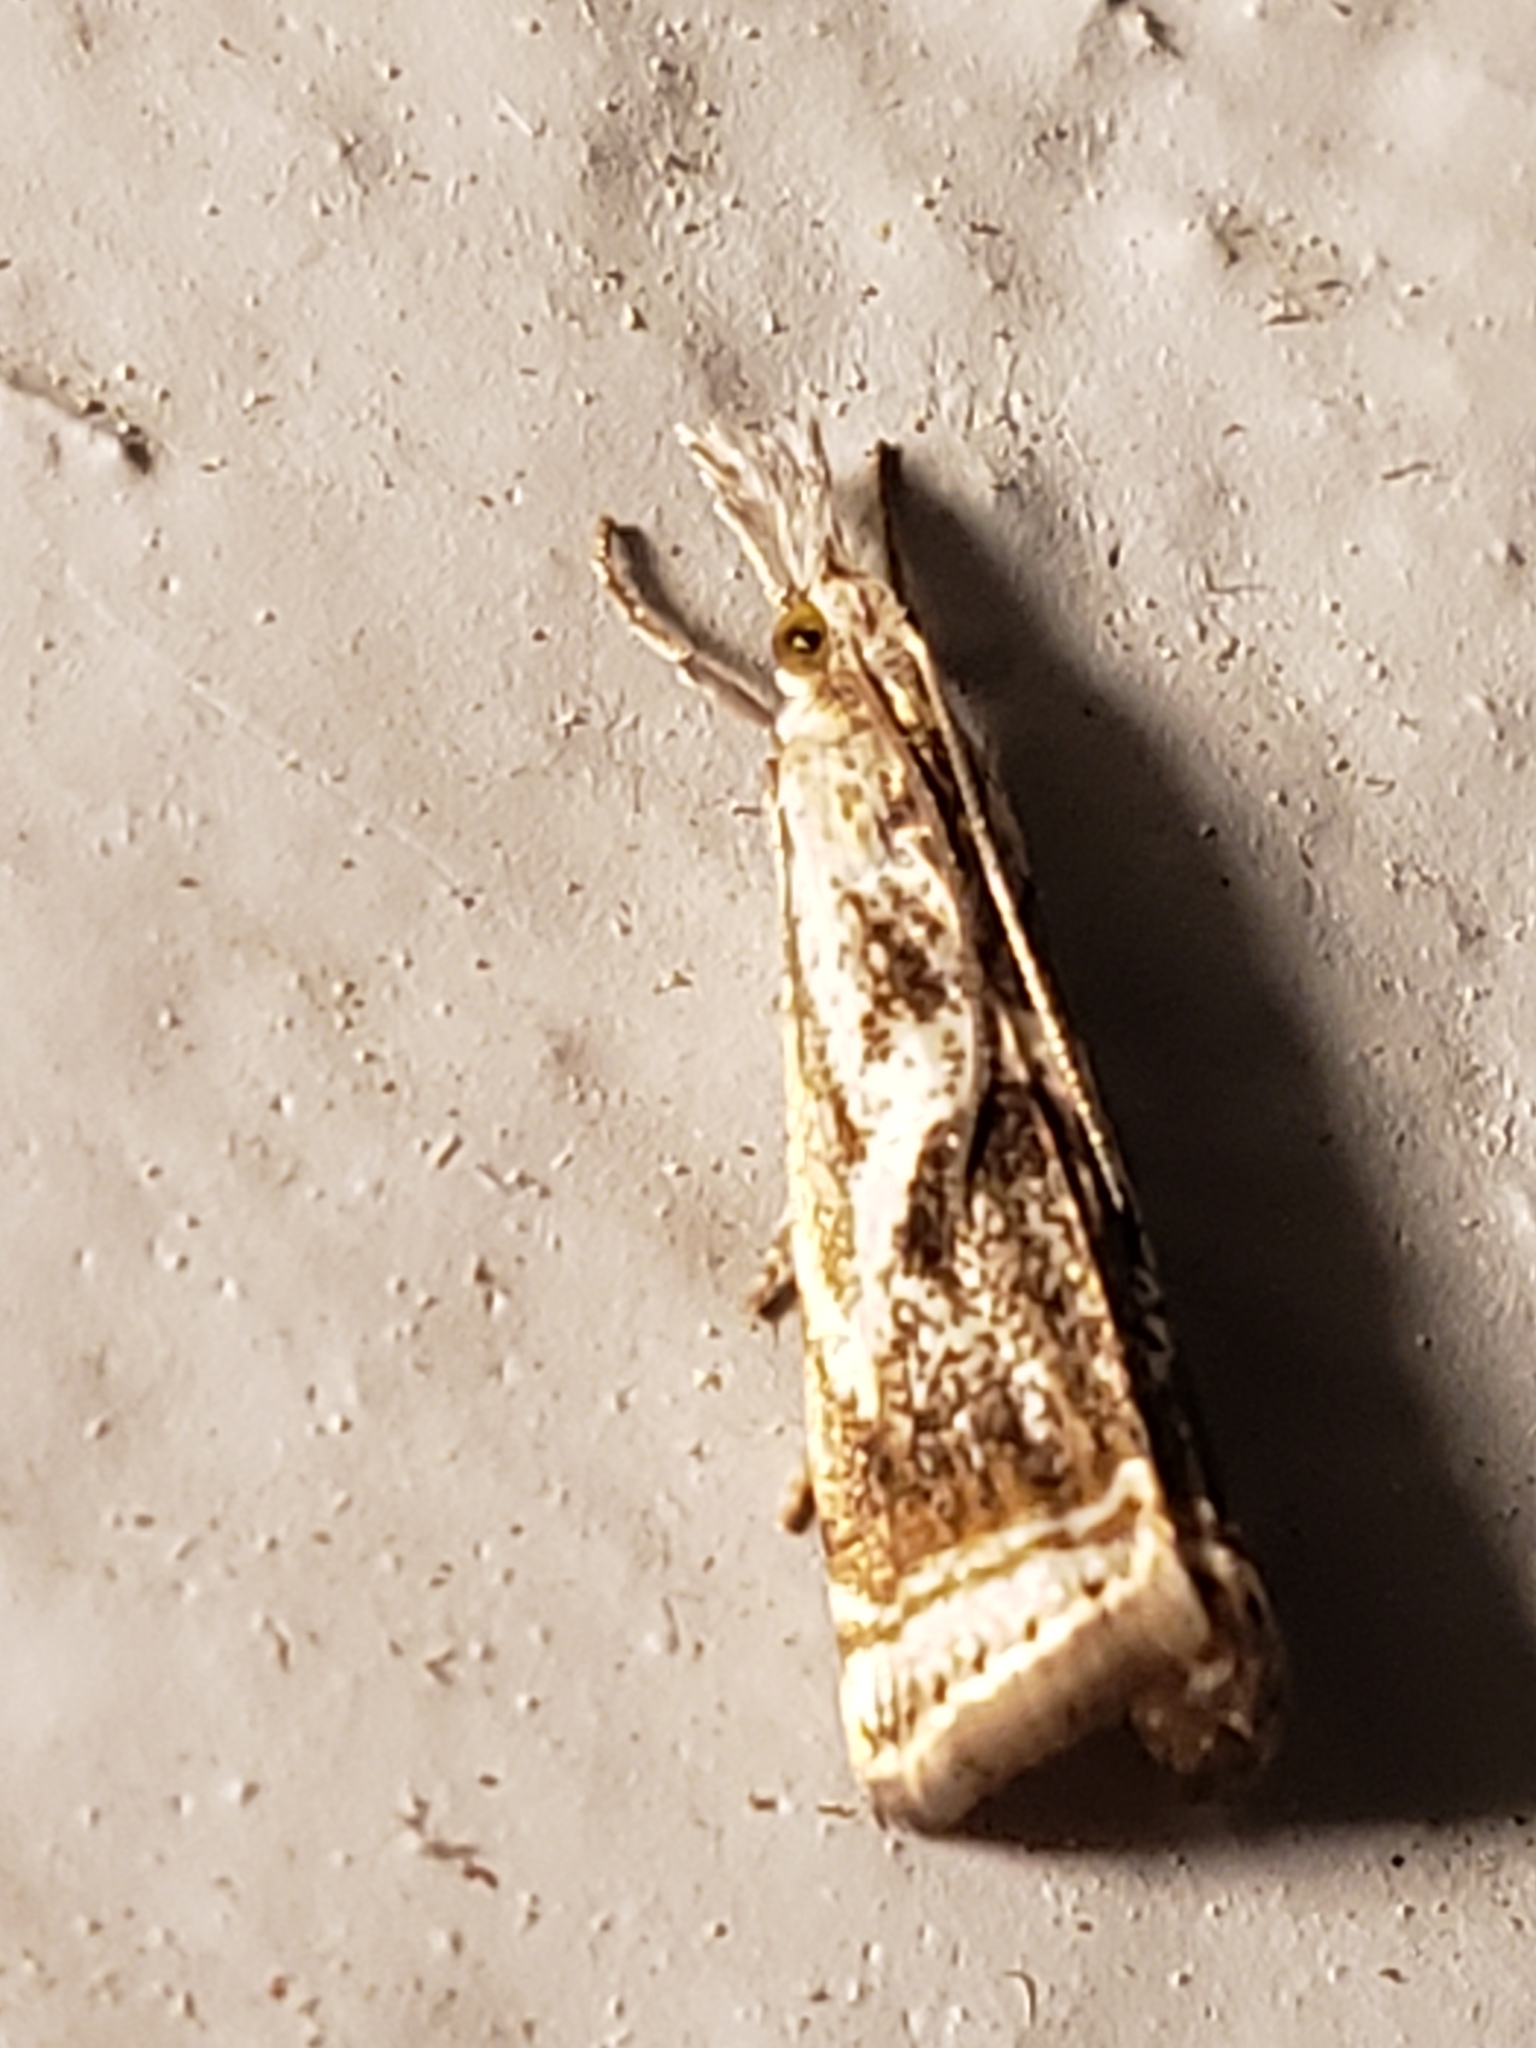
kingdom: Animalia
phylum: Arthropoda
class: Insecta
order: Lepidoptera
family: Crambidae
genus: Microcrambus
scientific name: Microcrambus elegans
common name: Elegant grass-veneer
